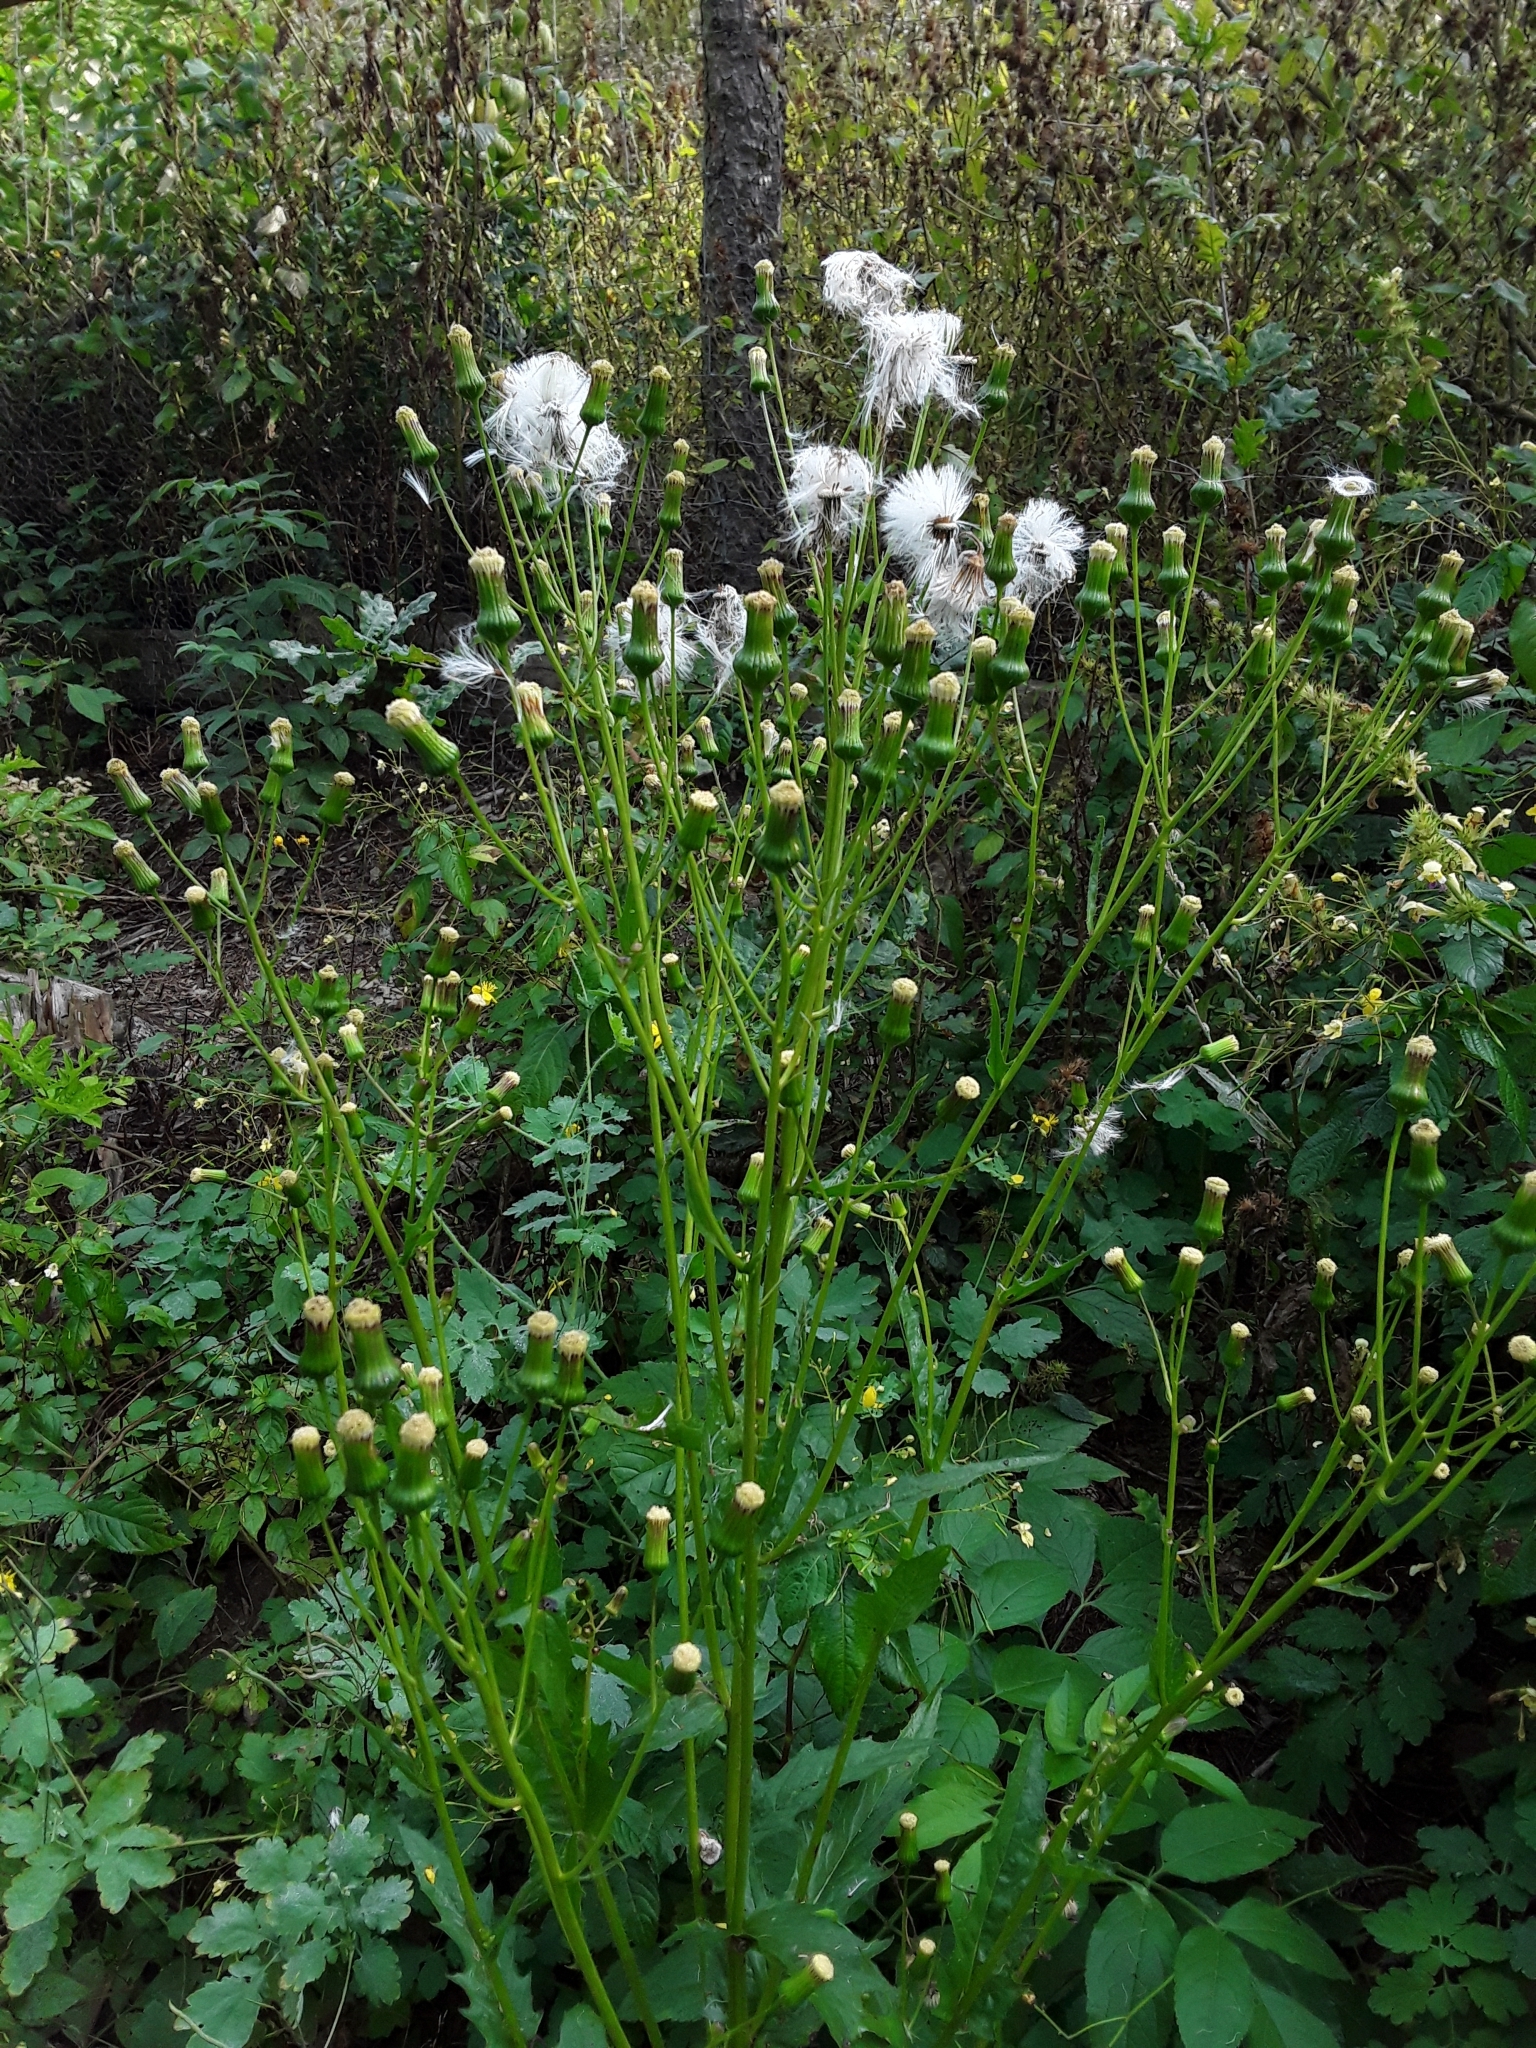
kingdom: Plantae
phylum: Tracheophyta
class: Magnoliopsida
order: Asterales
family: Asteraceae
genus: Erechtites
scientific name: Erechtites hieraciifolius
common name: American burnweed
